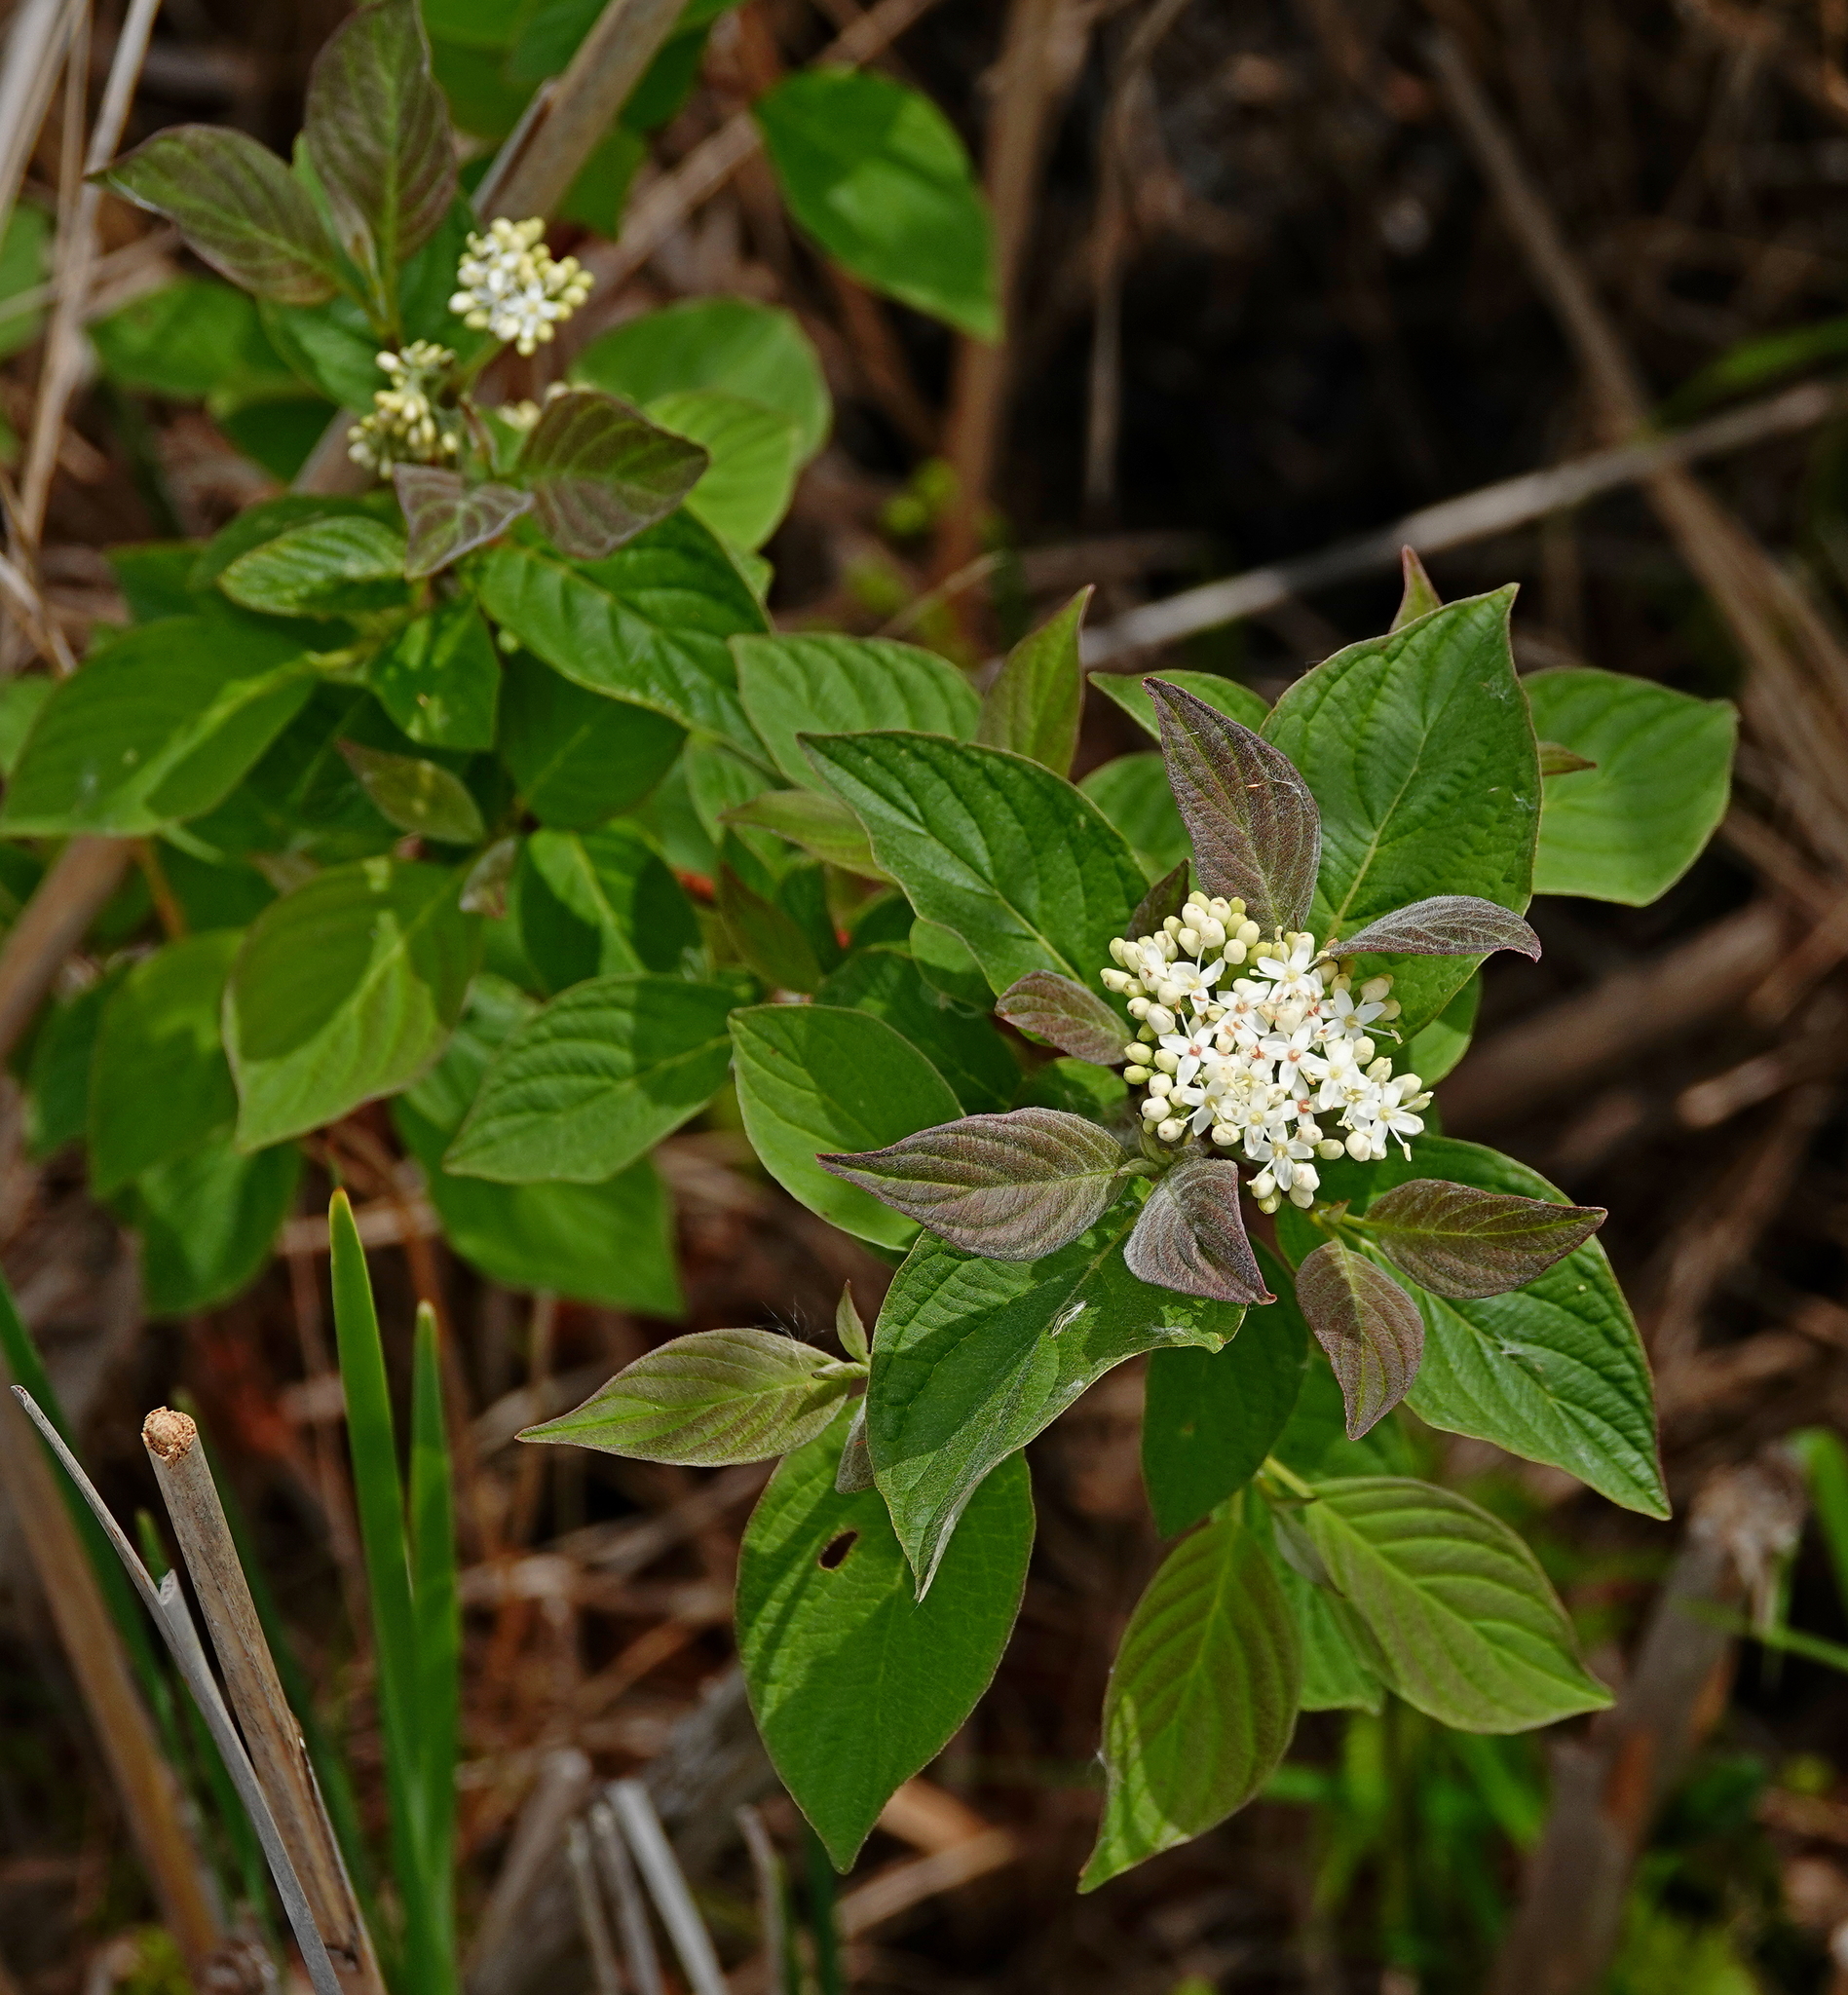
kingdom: Plantae
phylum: Tracheophyta
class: Magnoliopsida
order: Cornales
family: Cornaceae
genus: Cornus
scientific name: Cornus sericea
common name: Red-osier dogwood
